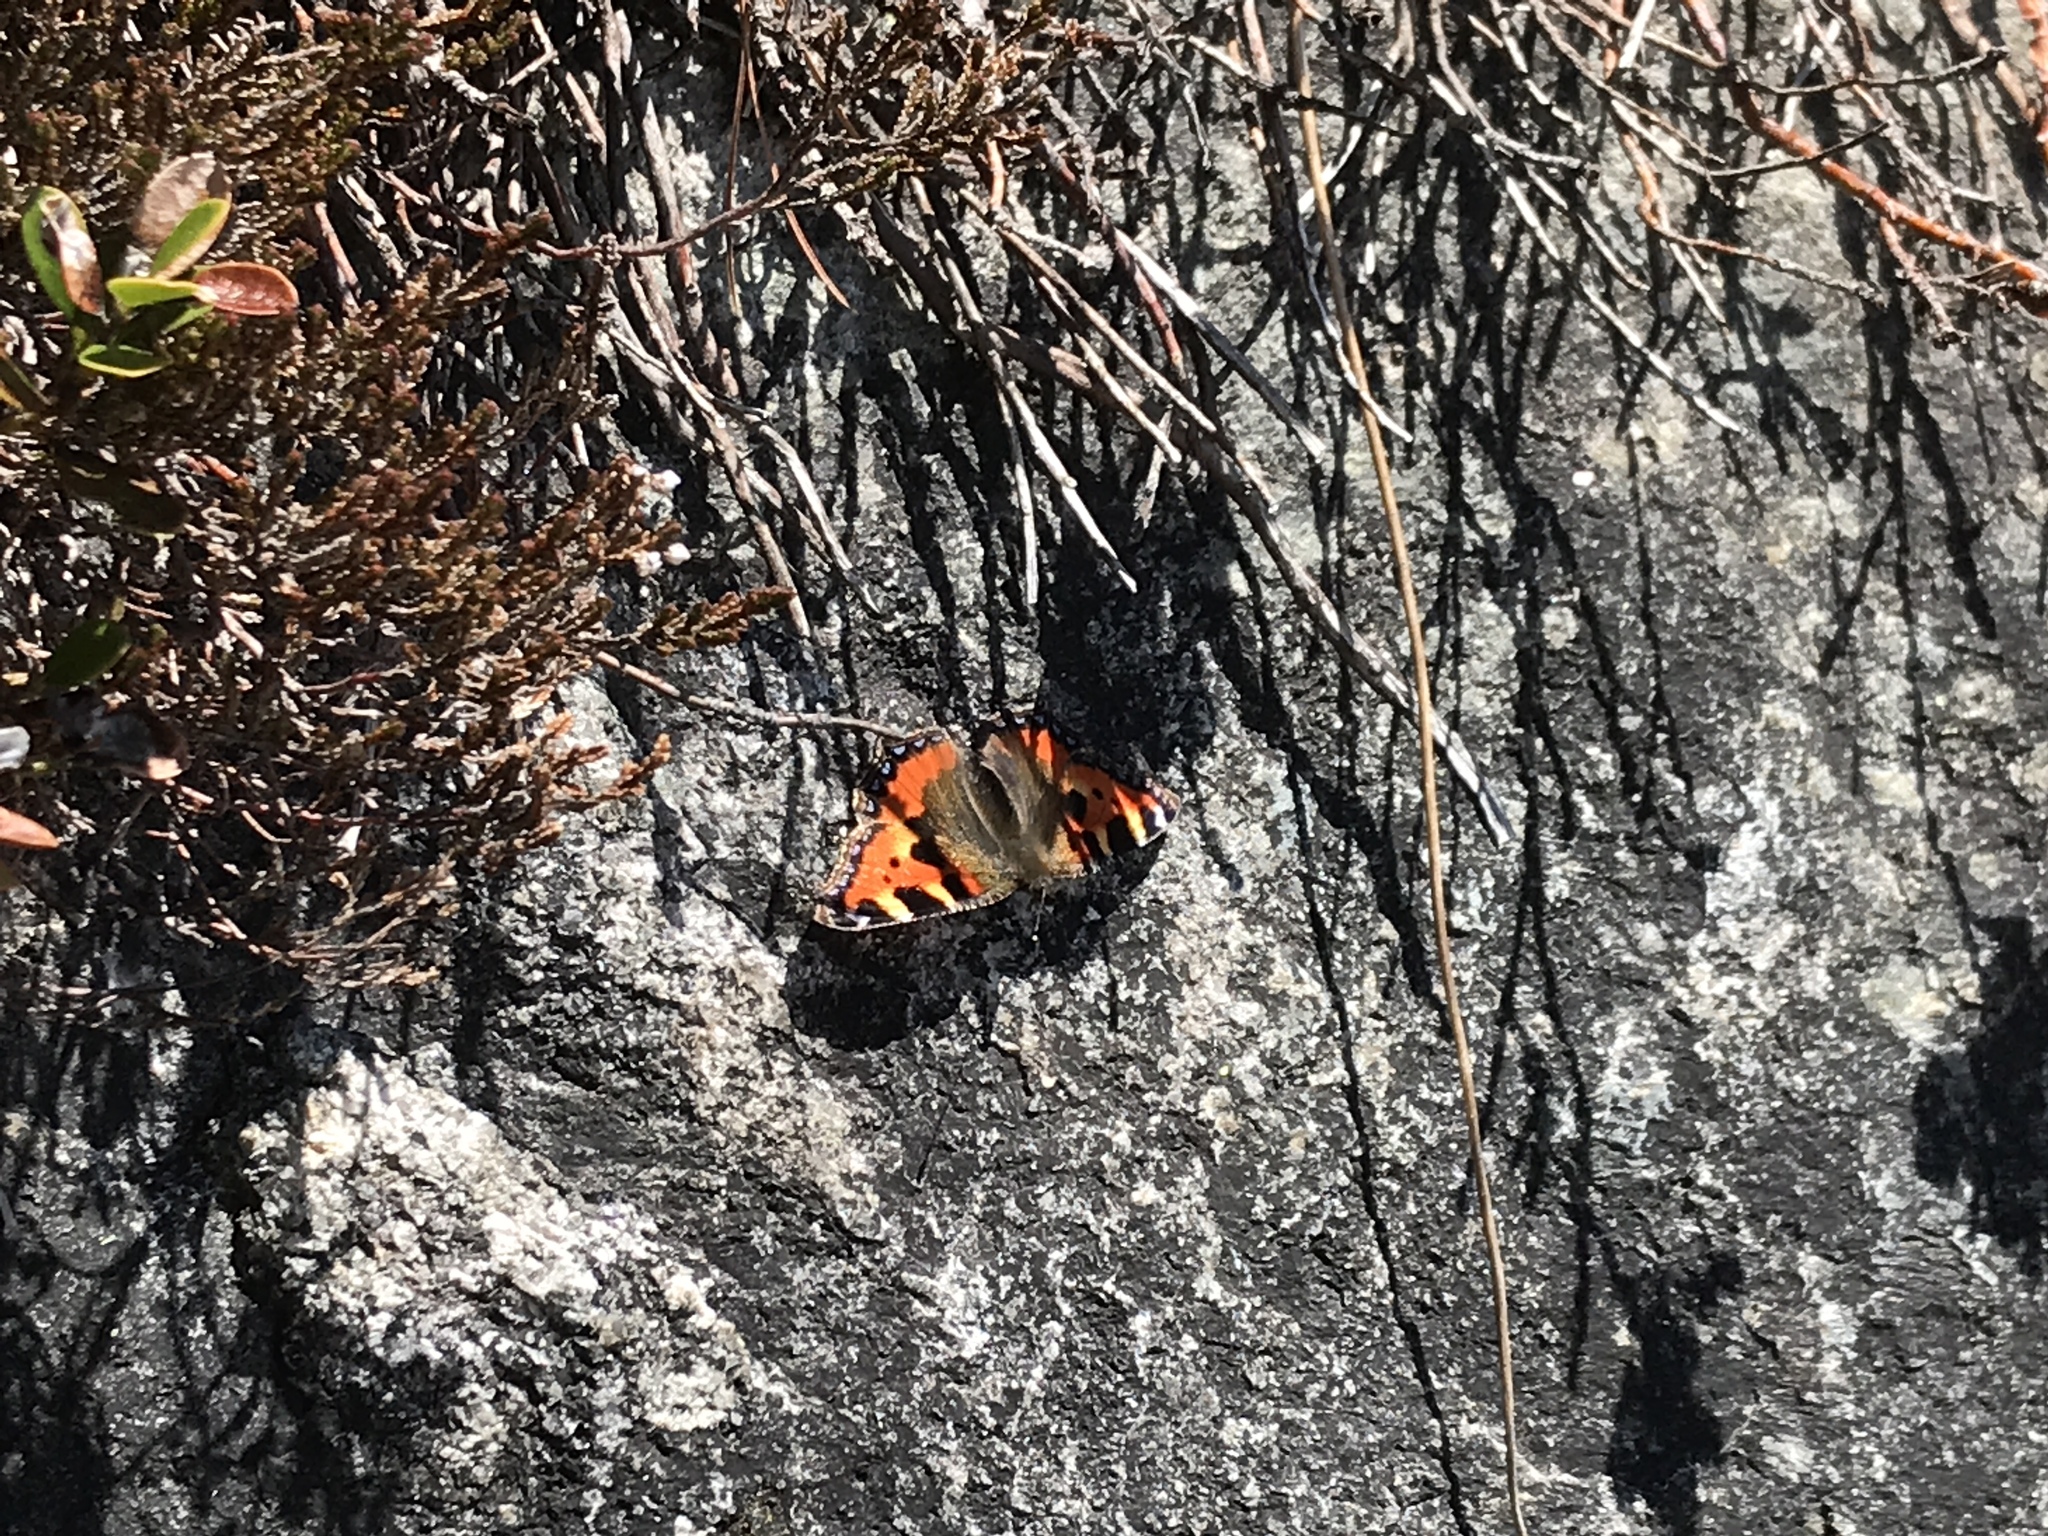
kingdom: Animalia
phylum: Arthropoda
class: Insecta
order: Lepidoptera
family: Nymphalidae
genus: Aglais
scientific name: Aglais urticae
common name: Small tortoiseshell
